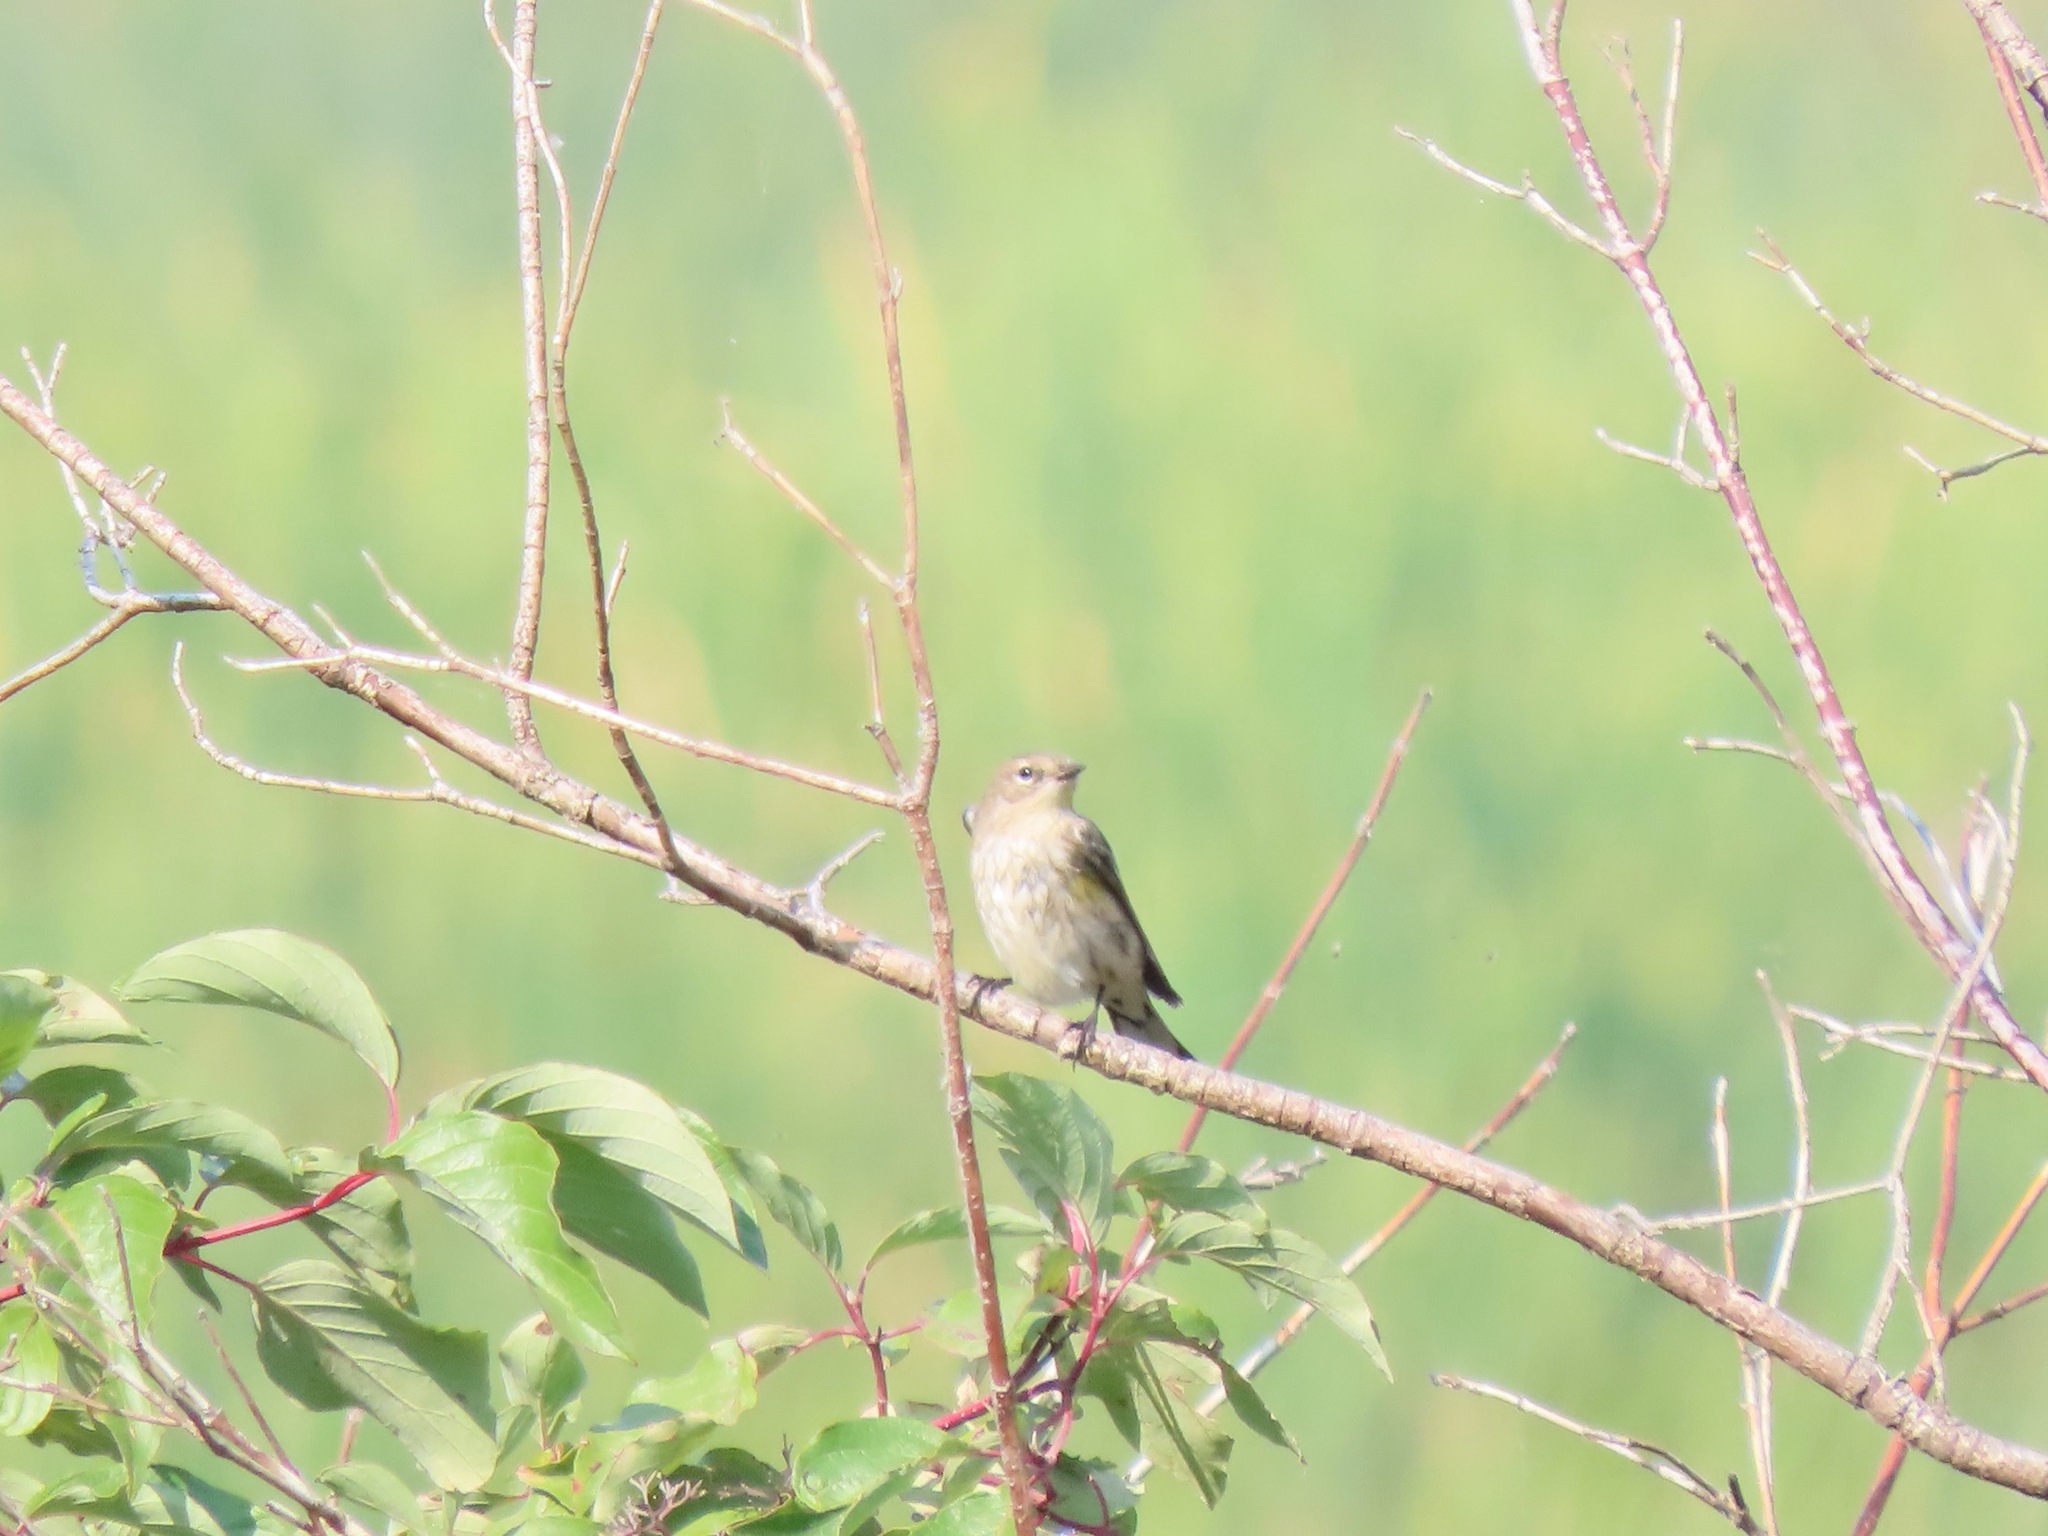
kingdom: Animalia
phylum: Chordata
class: Aves
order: Passeriformes
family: Parulidae
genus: Setophaga
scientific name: Setophaga coronata
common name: Myrtle warbler
